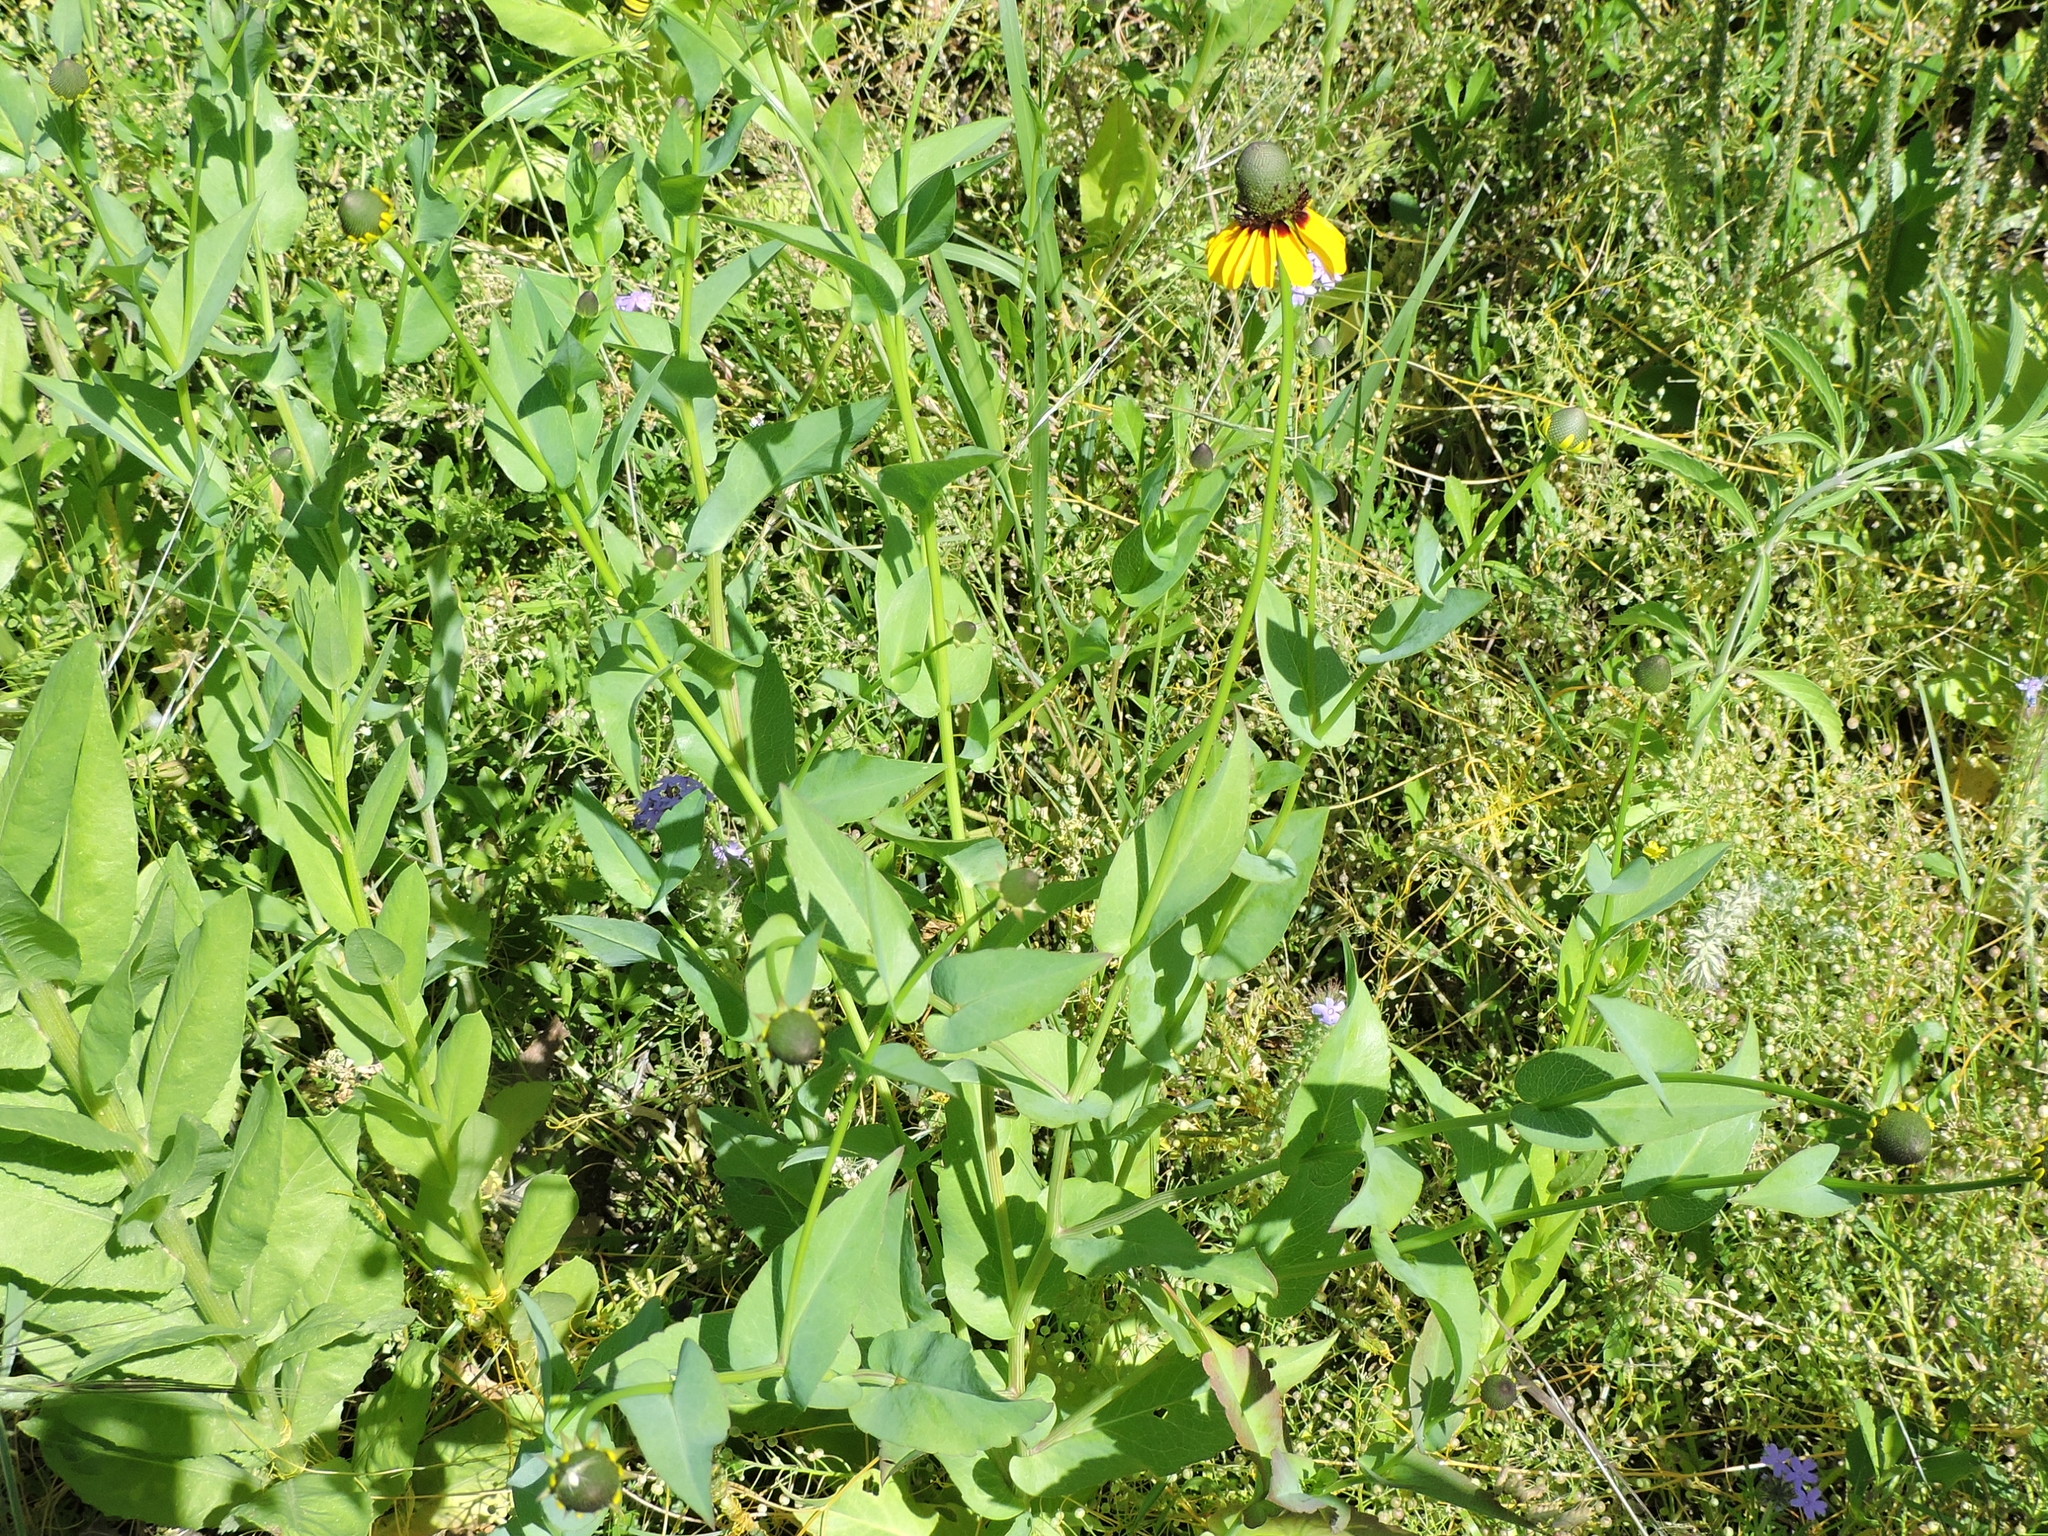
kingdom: Plantae
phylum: Tracheophyta
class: Magnoliopsida
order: Asterales
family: Asteraceae
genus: Rudbeckia
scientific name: Rudbeckia amplexicaulis
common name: Clasping-leaf coneflower
